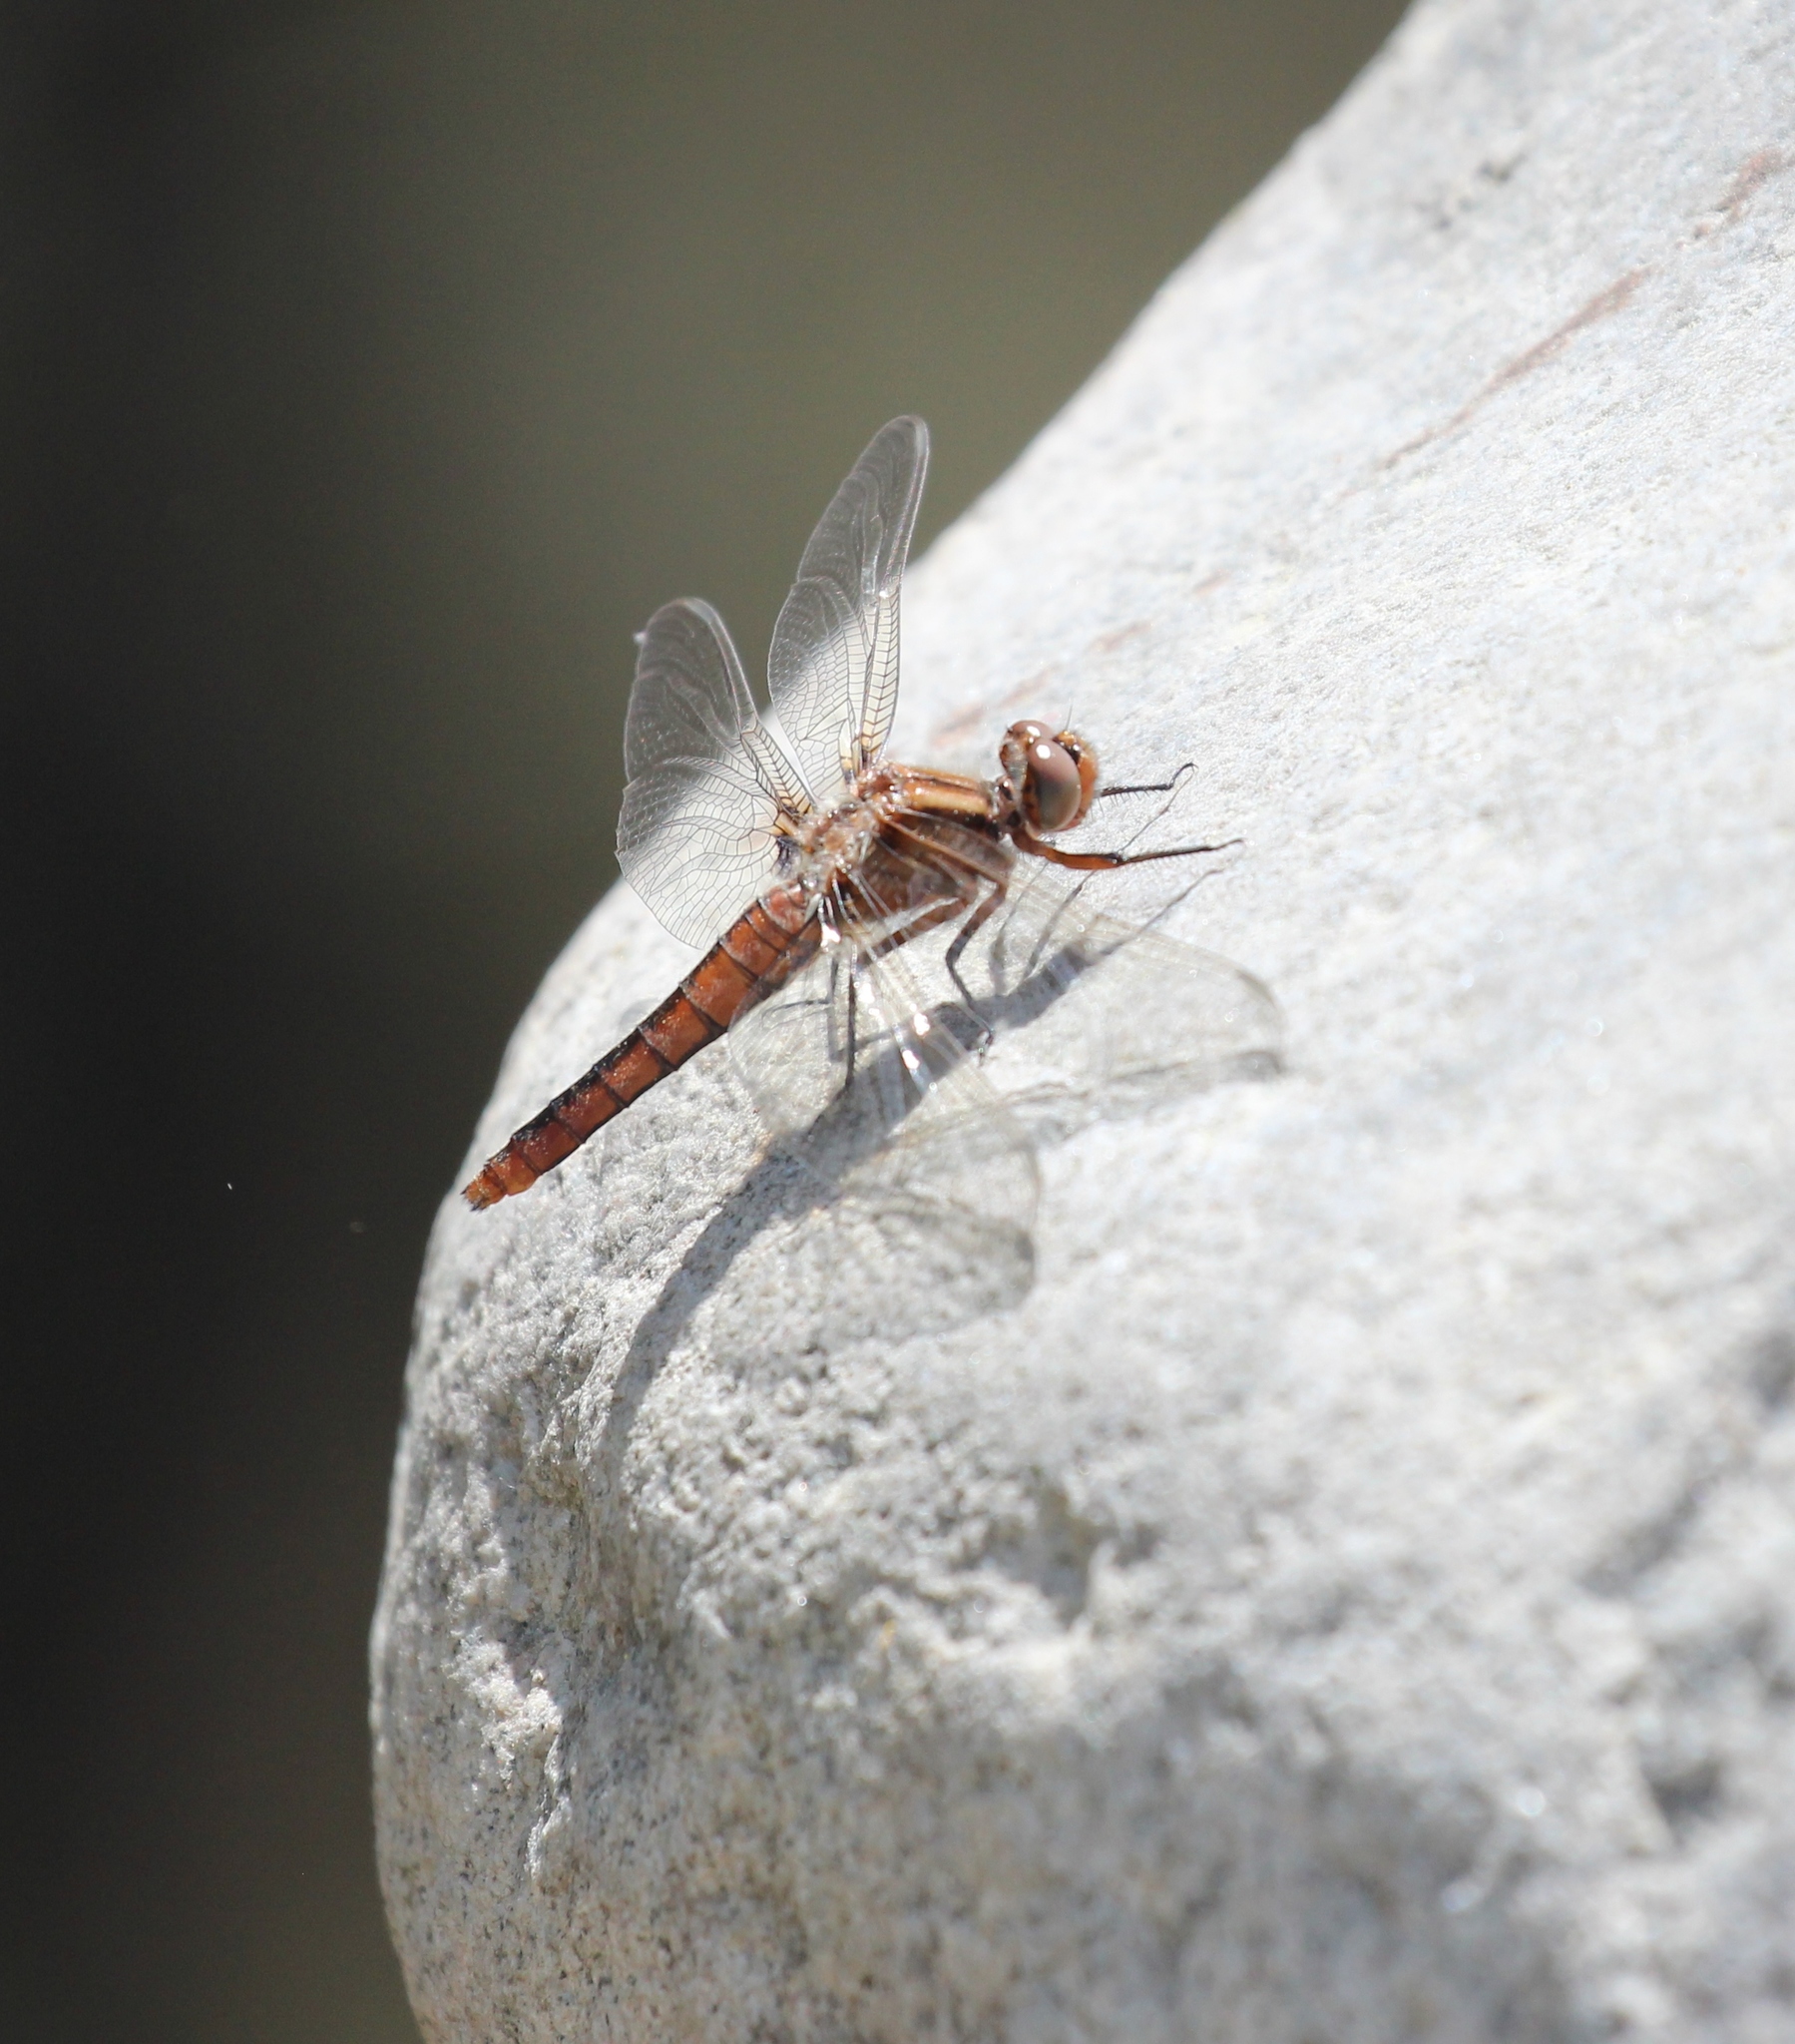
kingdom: Animalia
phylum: Arthropoda
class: Insecta
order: Odonata
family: Libellulidae
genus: Ladona
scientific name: Ladona julia
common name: Chalk-fronted corporal
